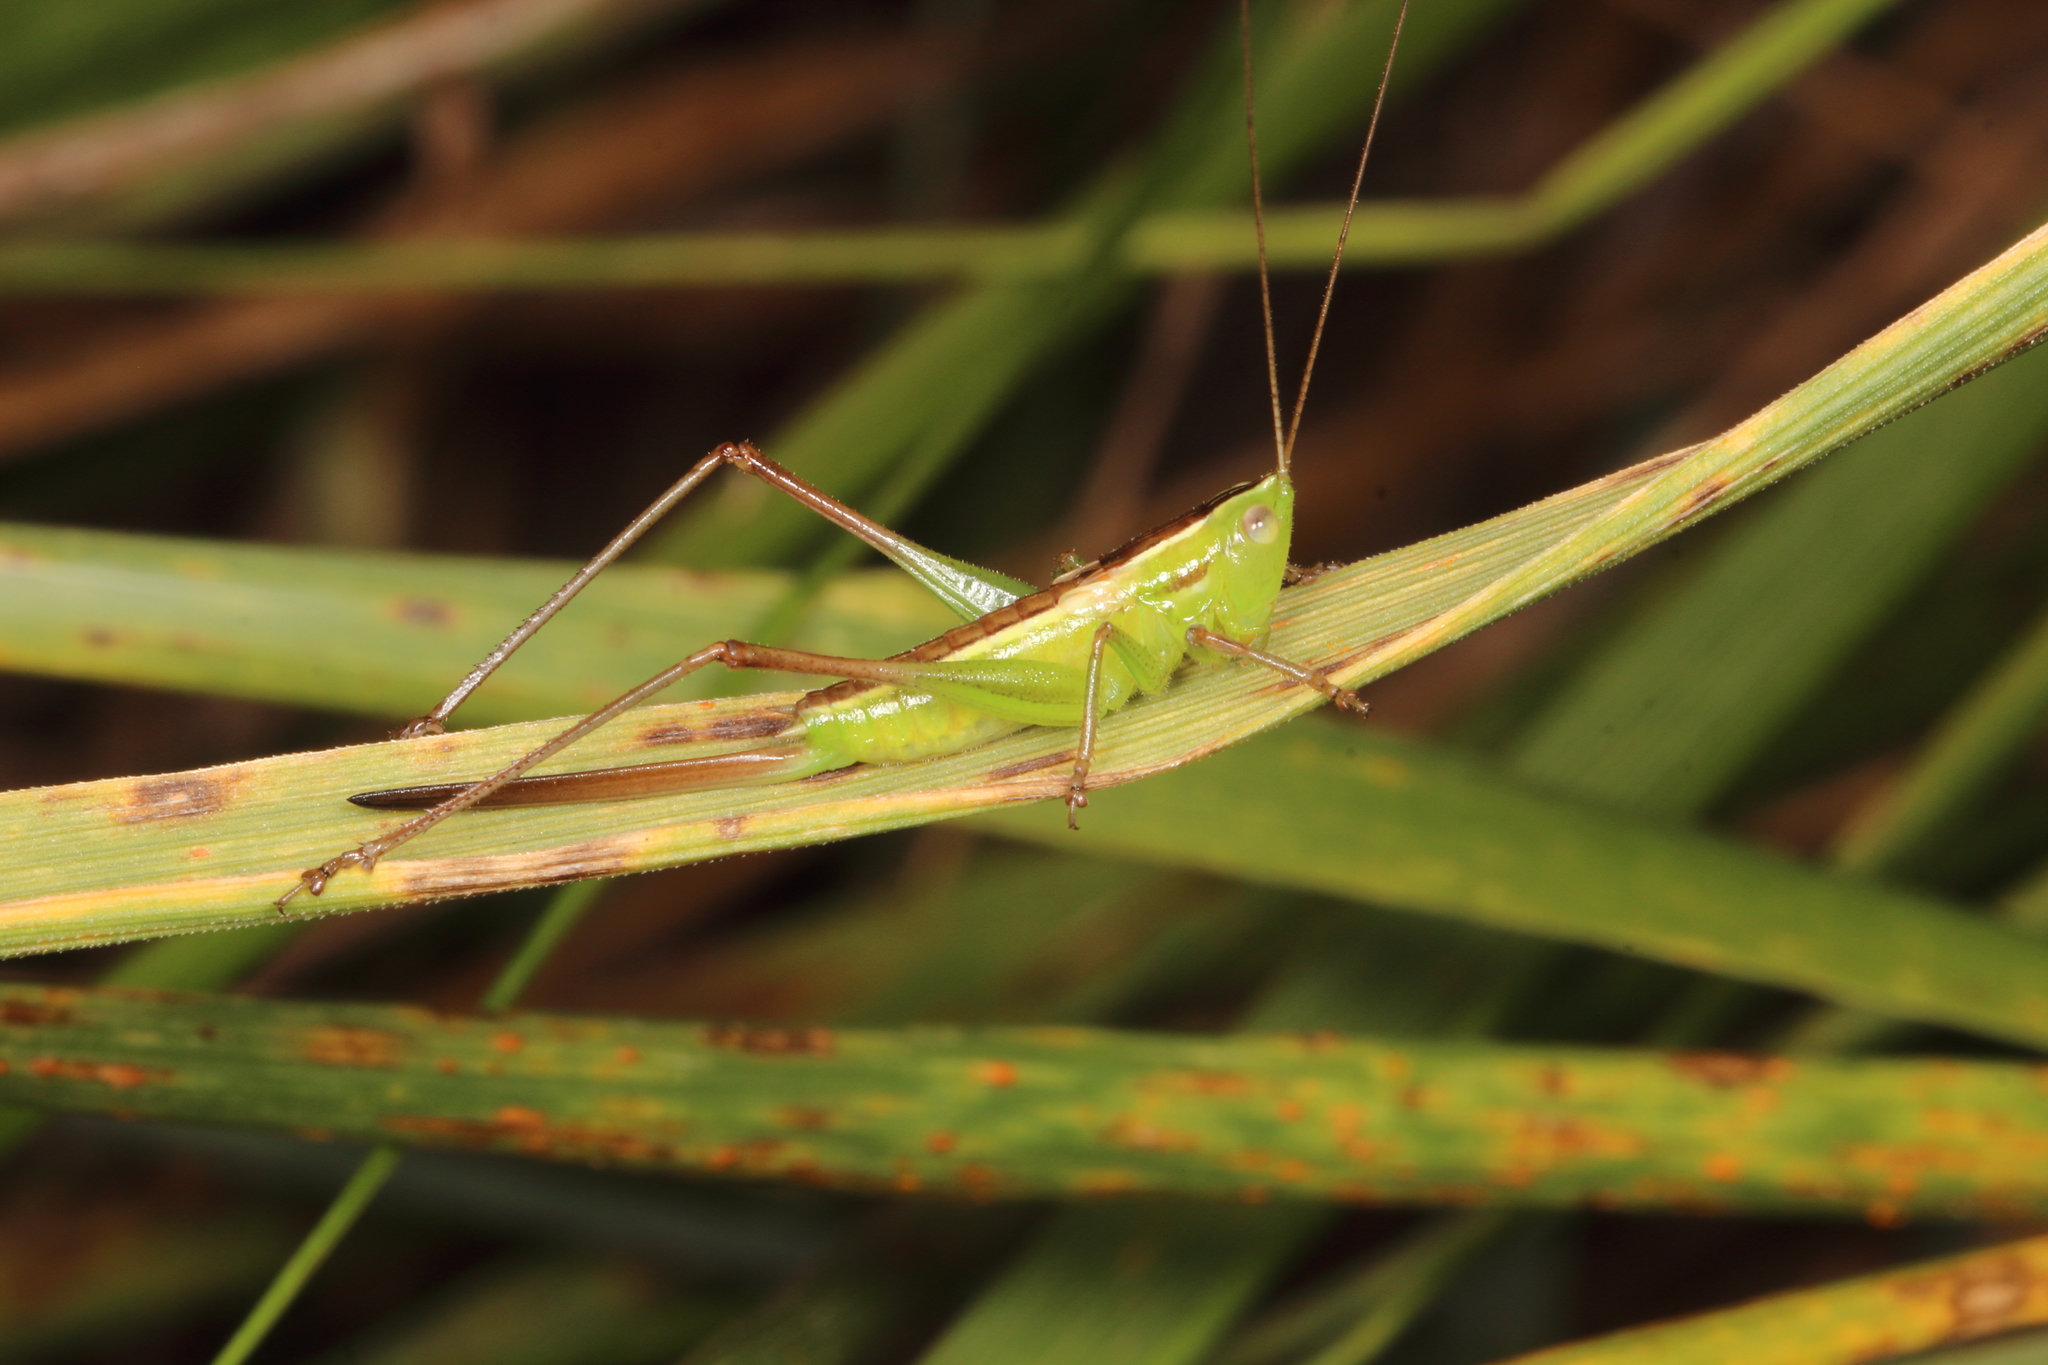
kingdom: Animalia
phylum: Arthropoda
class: Insecta
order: Orthoptera
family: Tettigoniidae
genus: Conocephalus
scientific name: Conocephalus bilineatus
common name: Small meadow katydid
